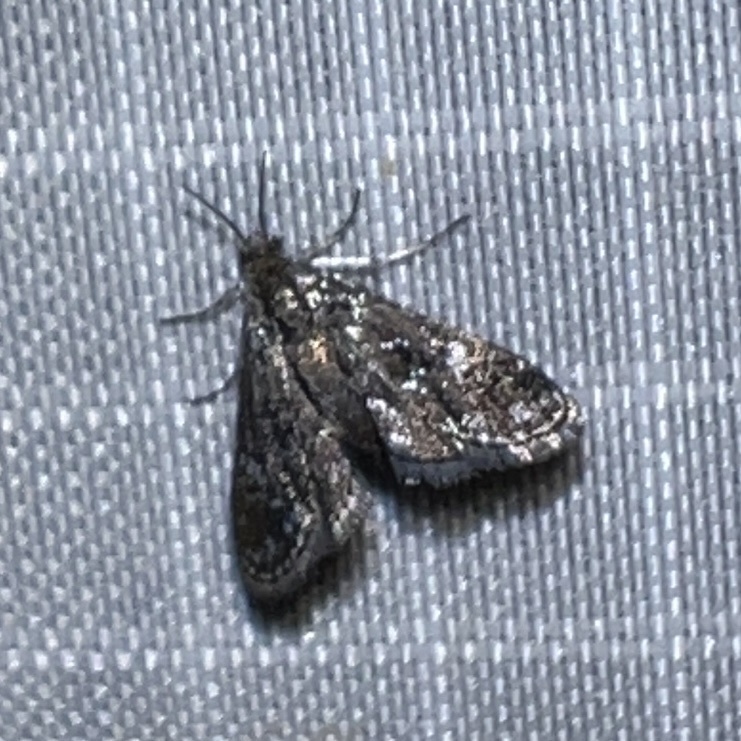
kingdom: Animalia
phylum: Arthropoda
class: Insecta
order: Lepidoptera
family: Crambidae
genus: Elophila
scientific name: Elophila tinealis
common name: Black duckweed moth
